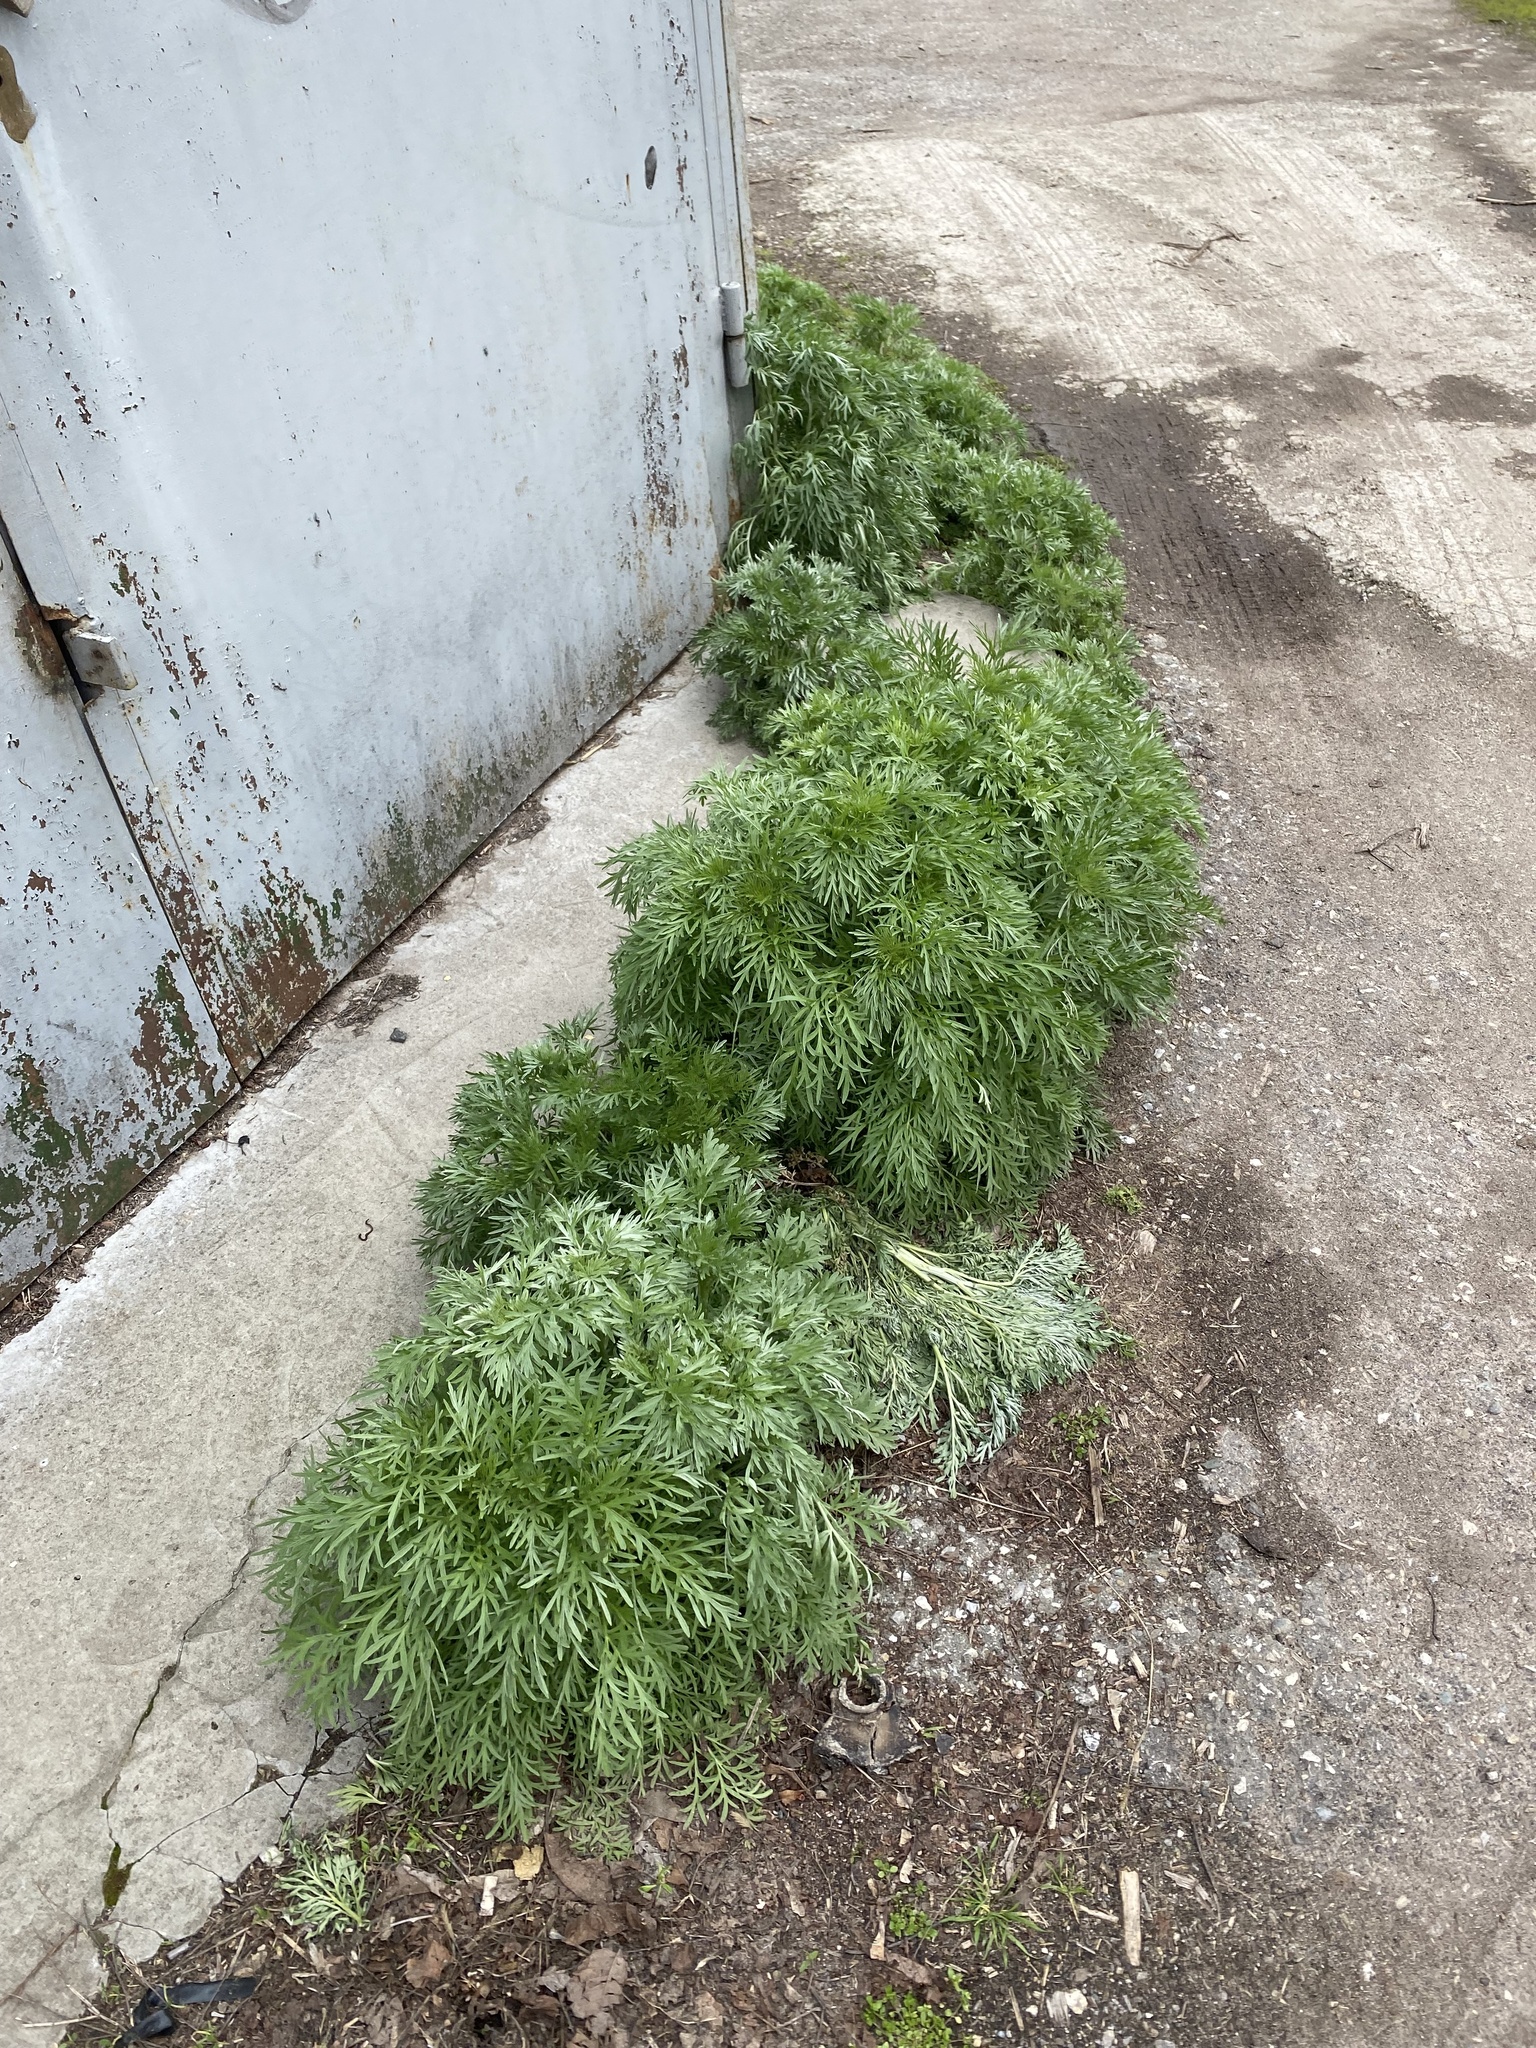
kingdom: Plantae
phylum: Tracheophyta
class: Magnoliopsida
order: Asterales
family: Asteraceae
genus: Artemisia
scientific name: Artemisia absinthium
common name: Wormwood
